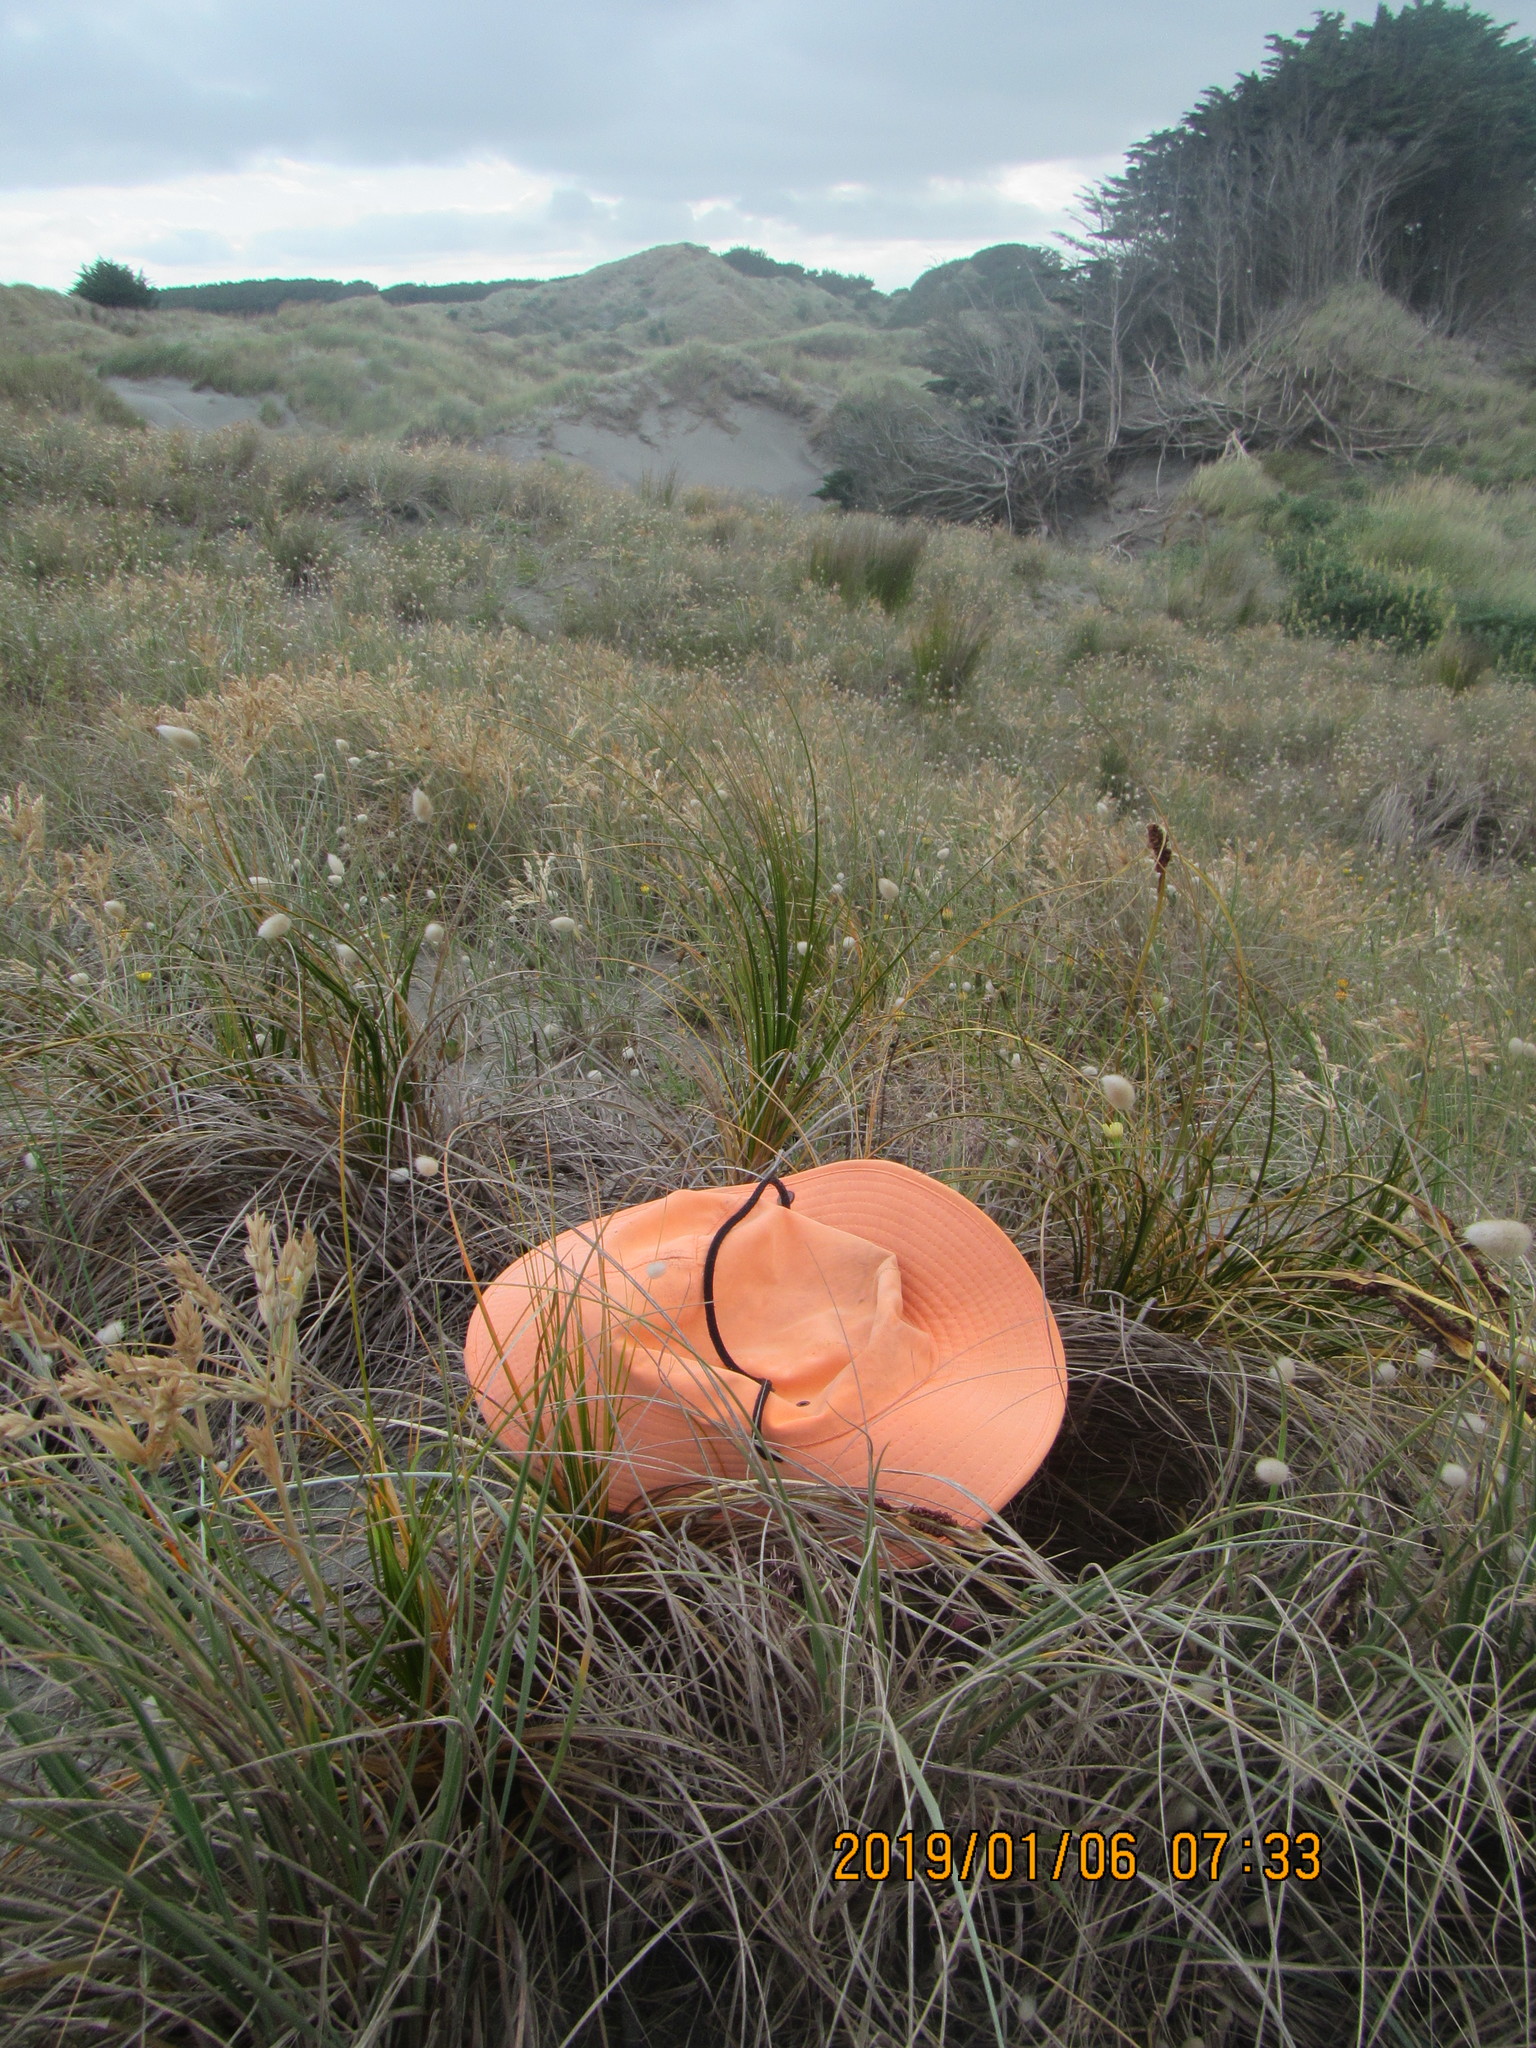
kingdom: Animalia
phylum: Arthropoda
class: Arachnida
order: Araneae
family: Oxyopidae
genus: Oxyopes
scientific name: Oxyopes gracilipes
